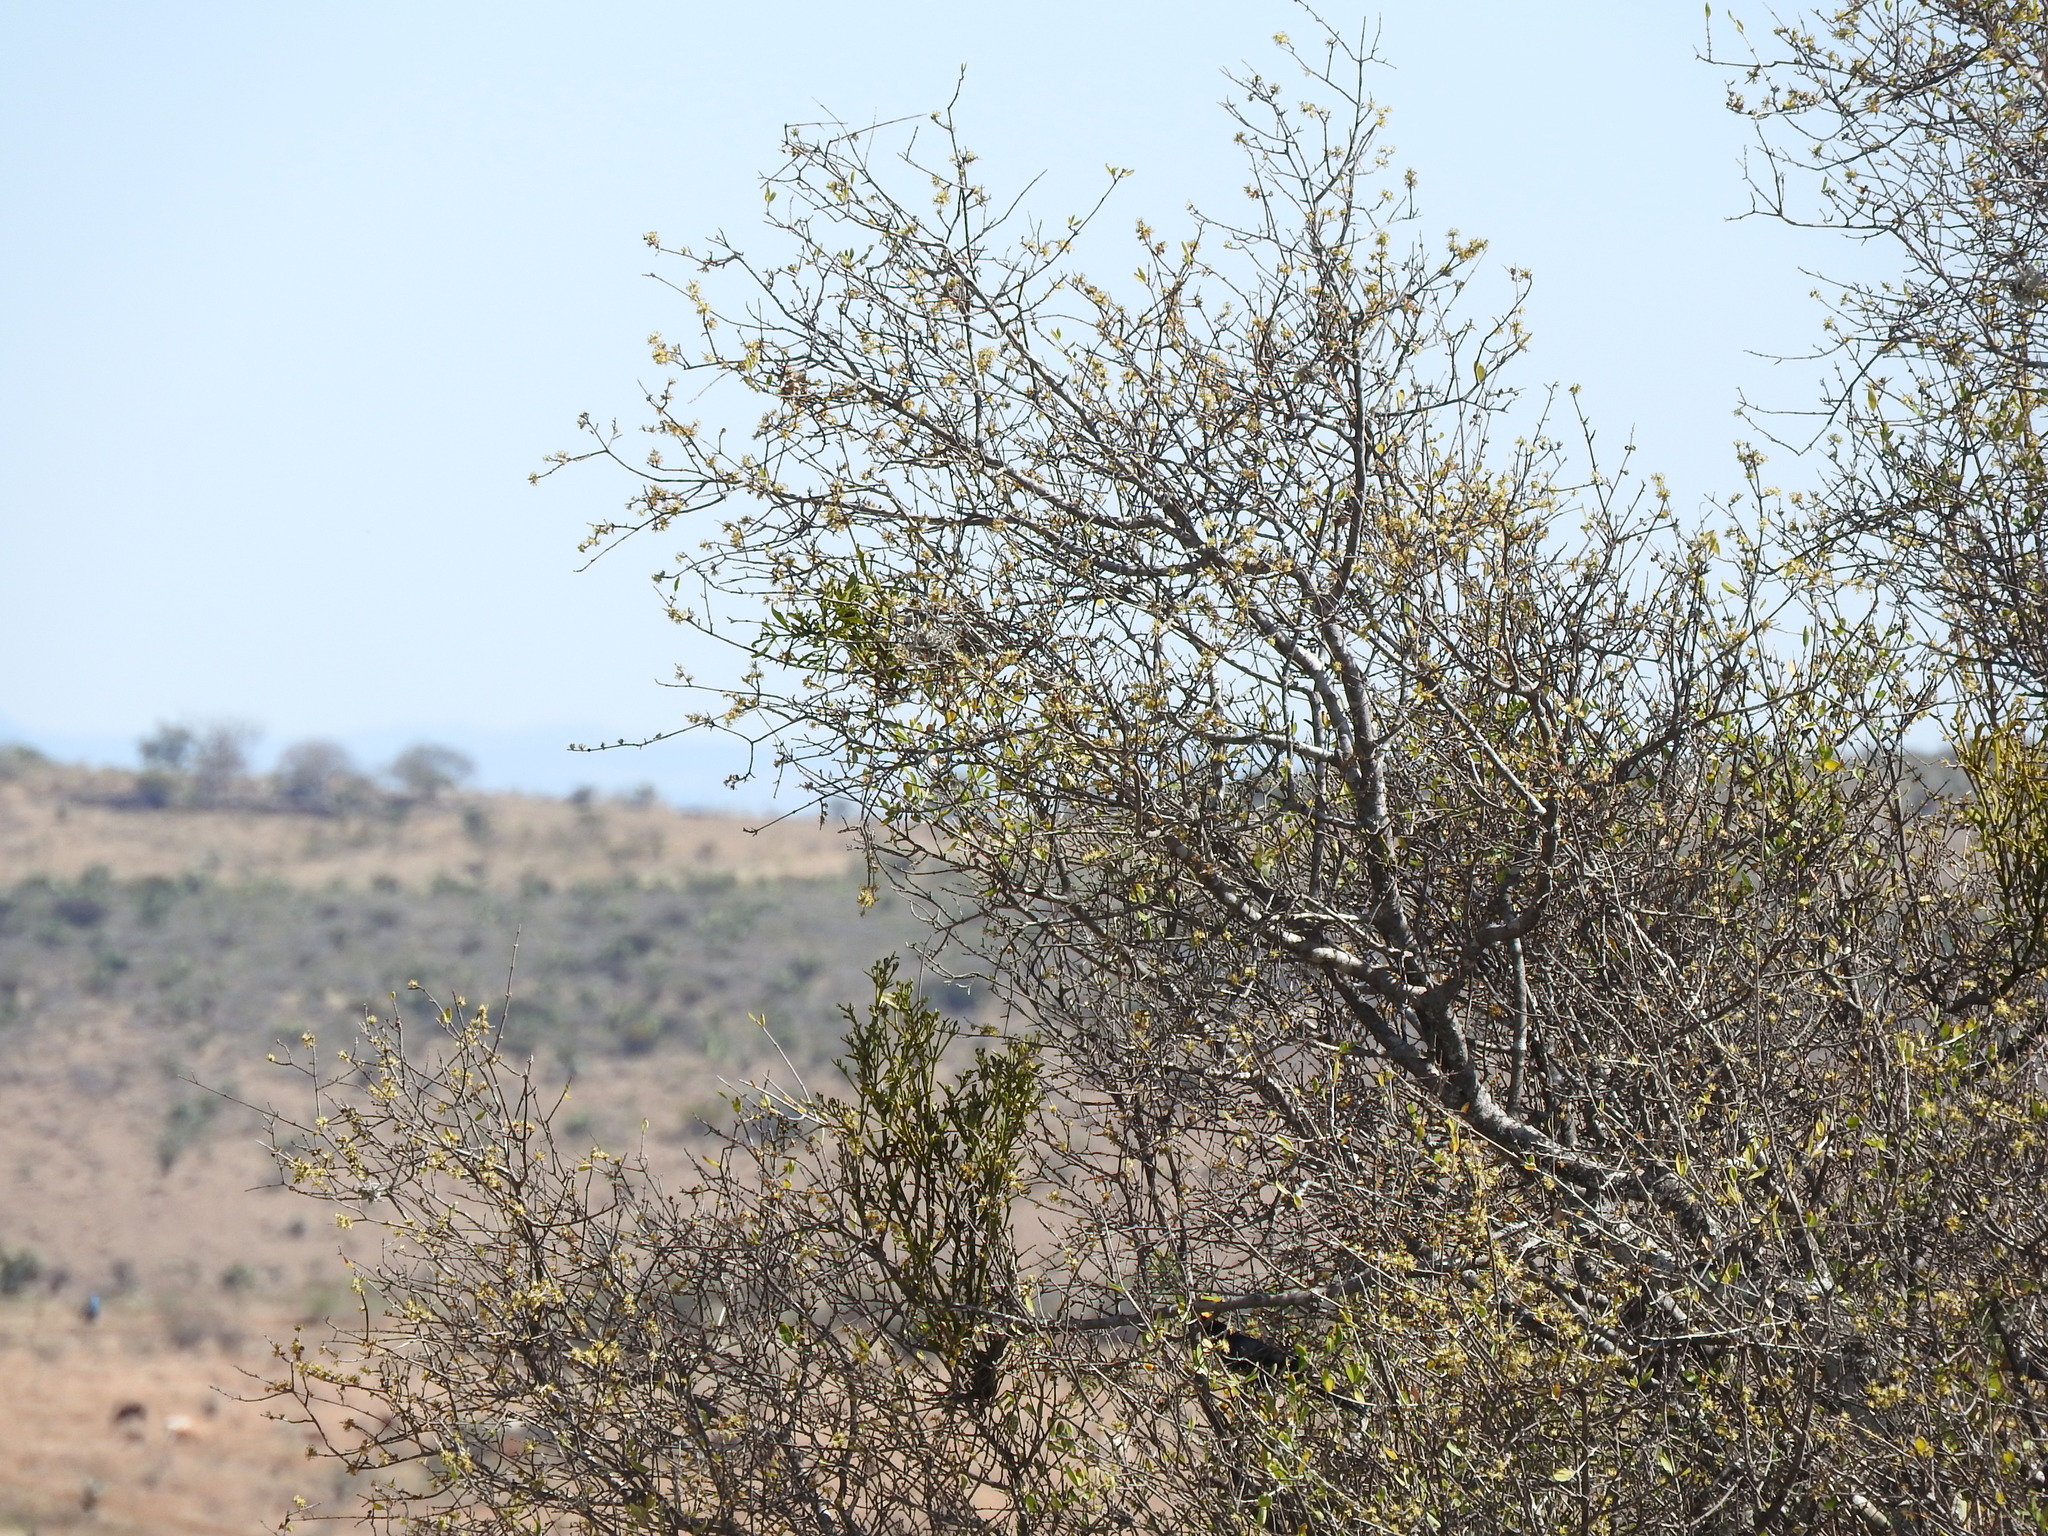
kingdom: Plantae
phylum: Tracheophyta
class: Magnoliopsida
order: Lamiales
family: Oleaceae
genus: Forestiera
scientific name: Forestiera phillyreoides
